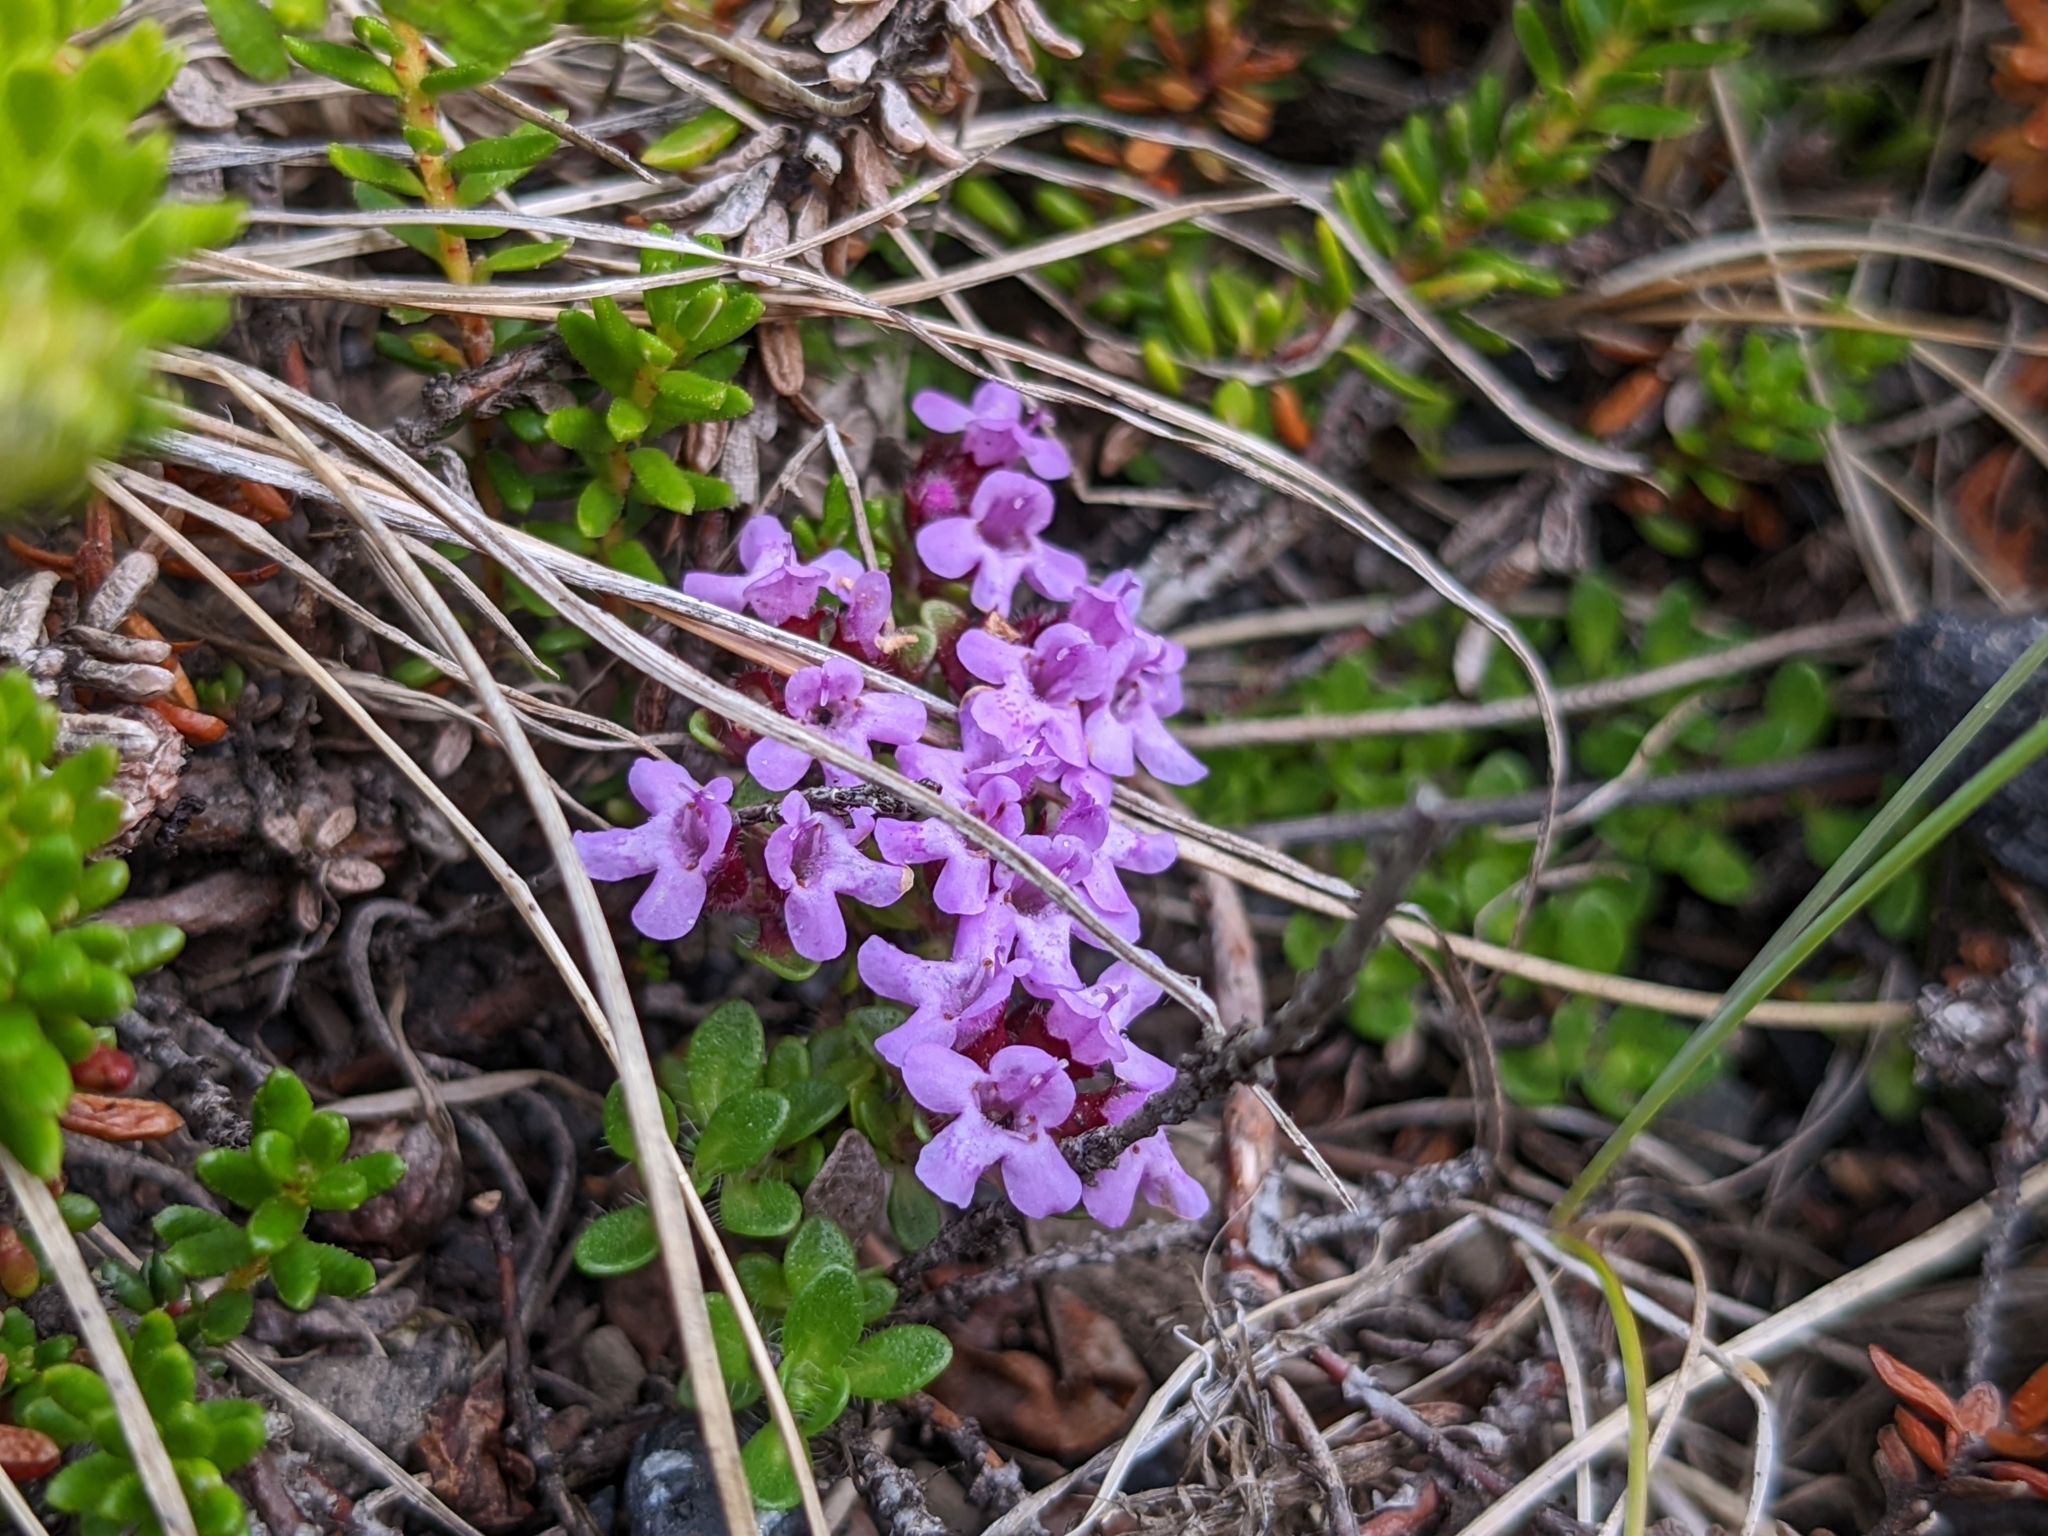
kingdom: Plantae
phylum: Tracheophyta
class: Magnoliopsida
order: Lamiales
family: Lamiaceae
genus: Thymus
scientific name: Thymus praecox
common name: Wild thyme
